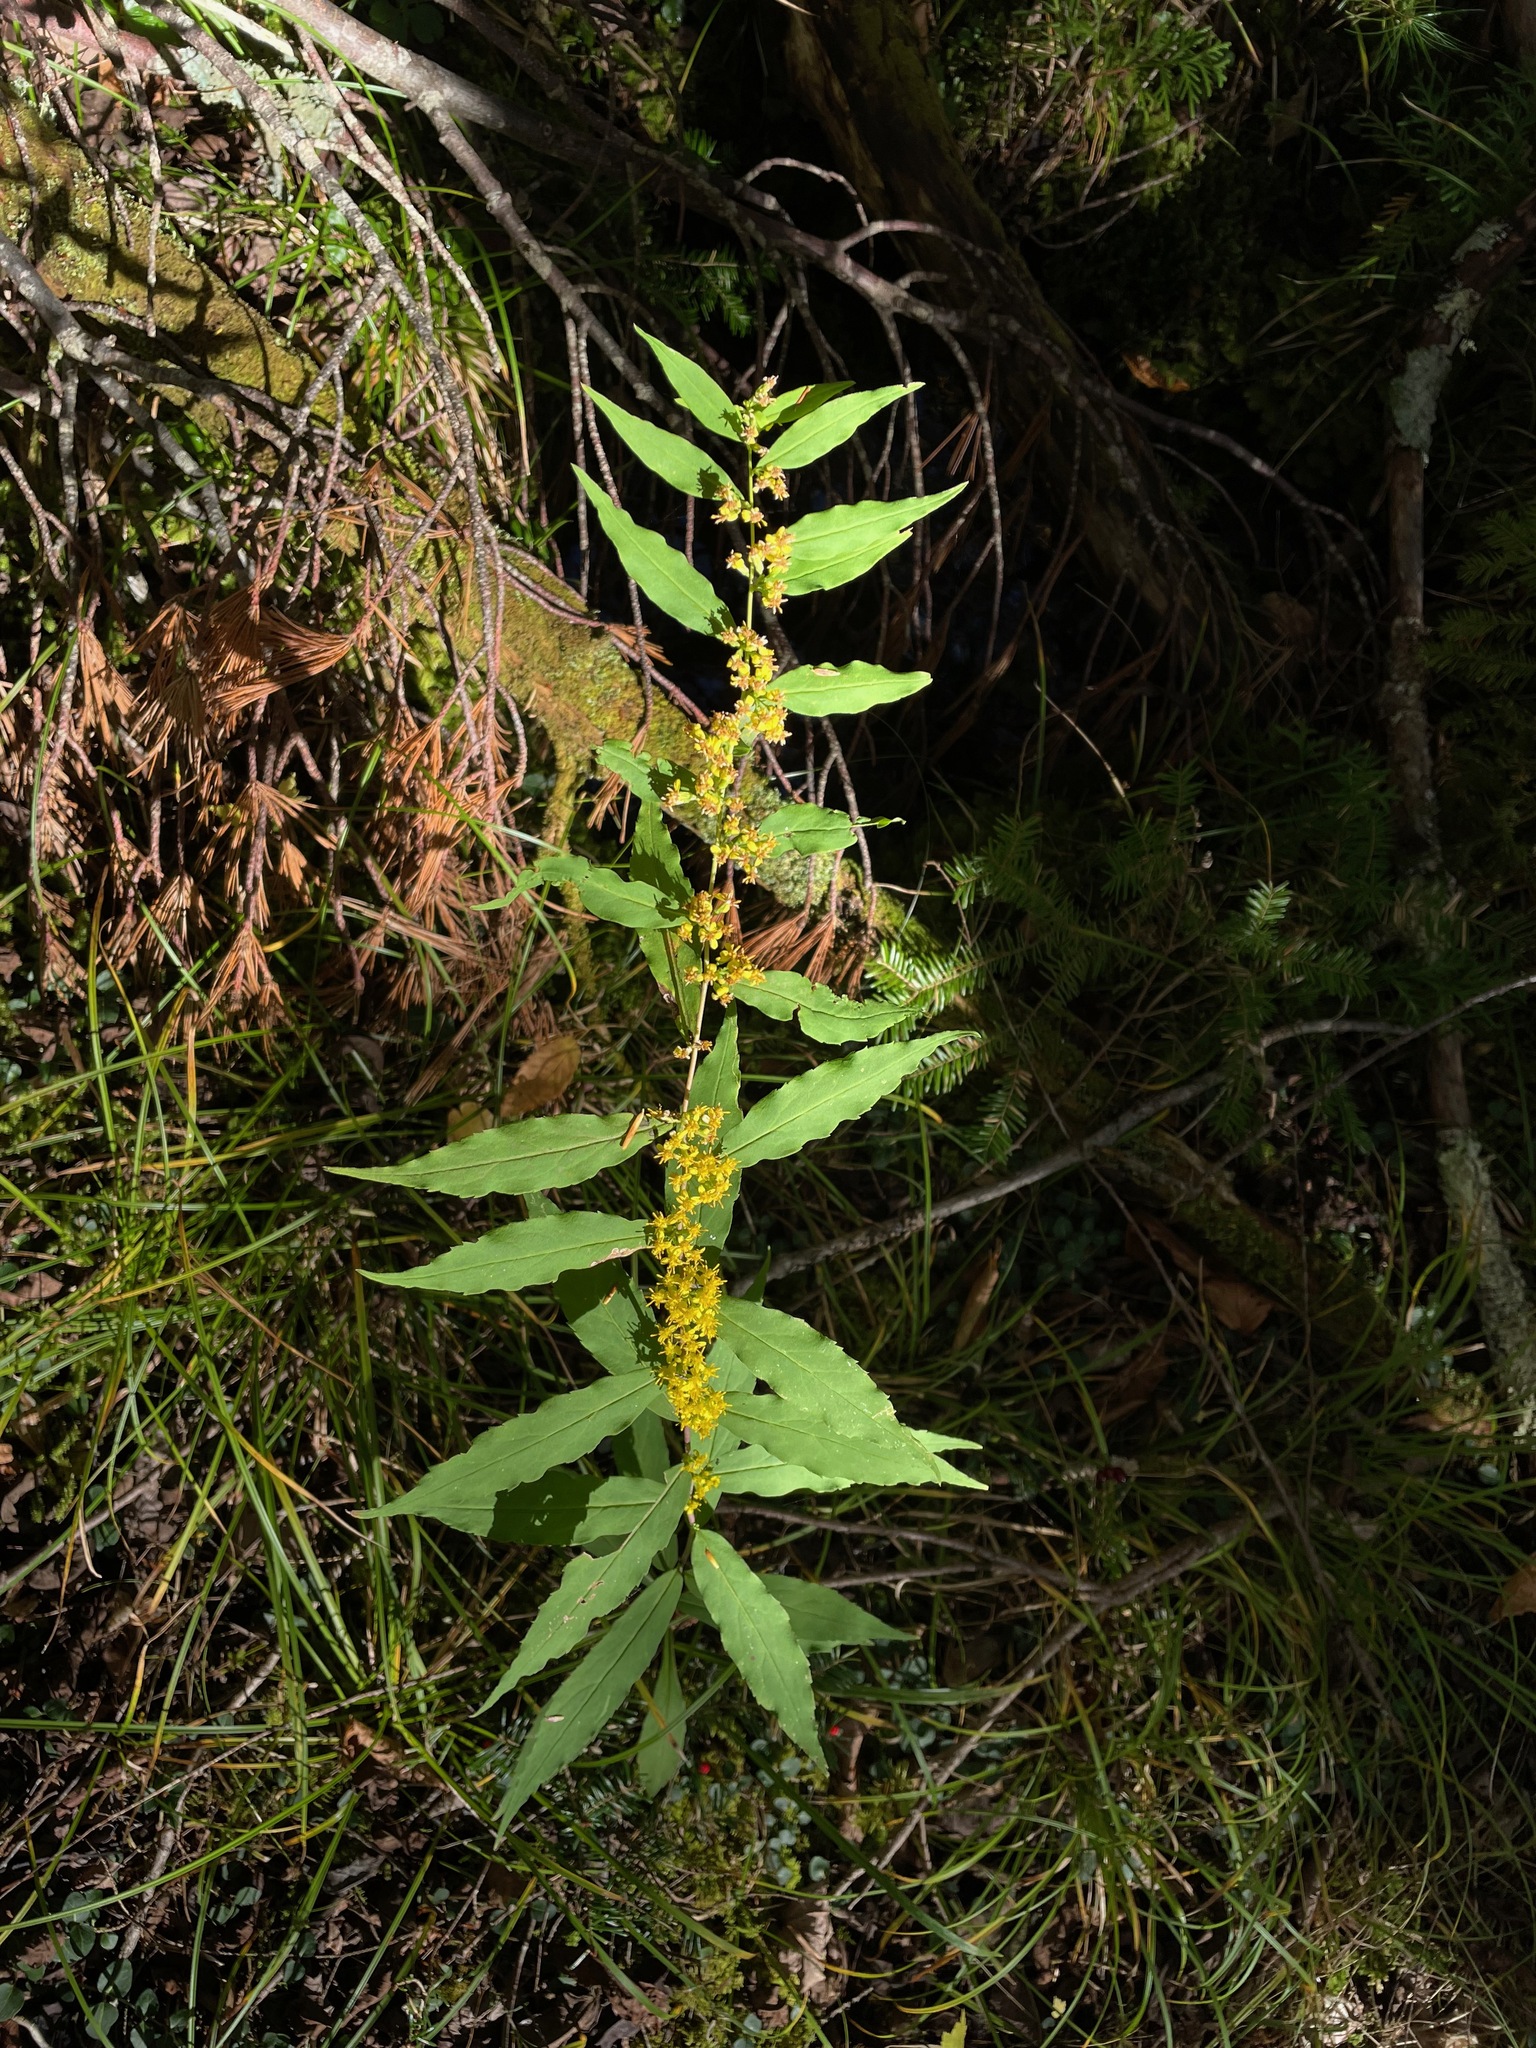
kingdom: Plantae
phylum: Tracheophyta
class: Magnoliopsida
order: Asterales
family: Asteraceae
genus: Solidago
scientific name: Solidago caesia
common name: Woodland goldenrod
